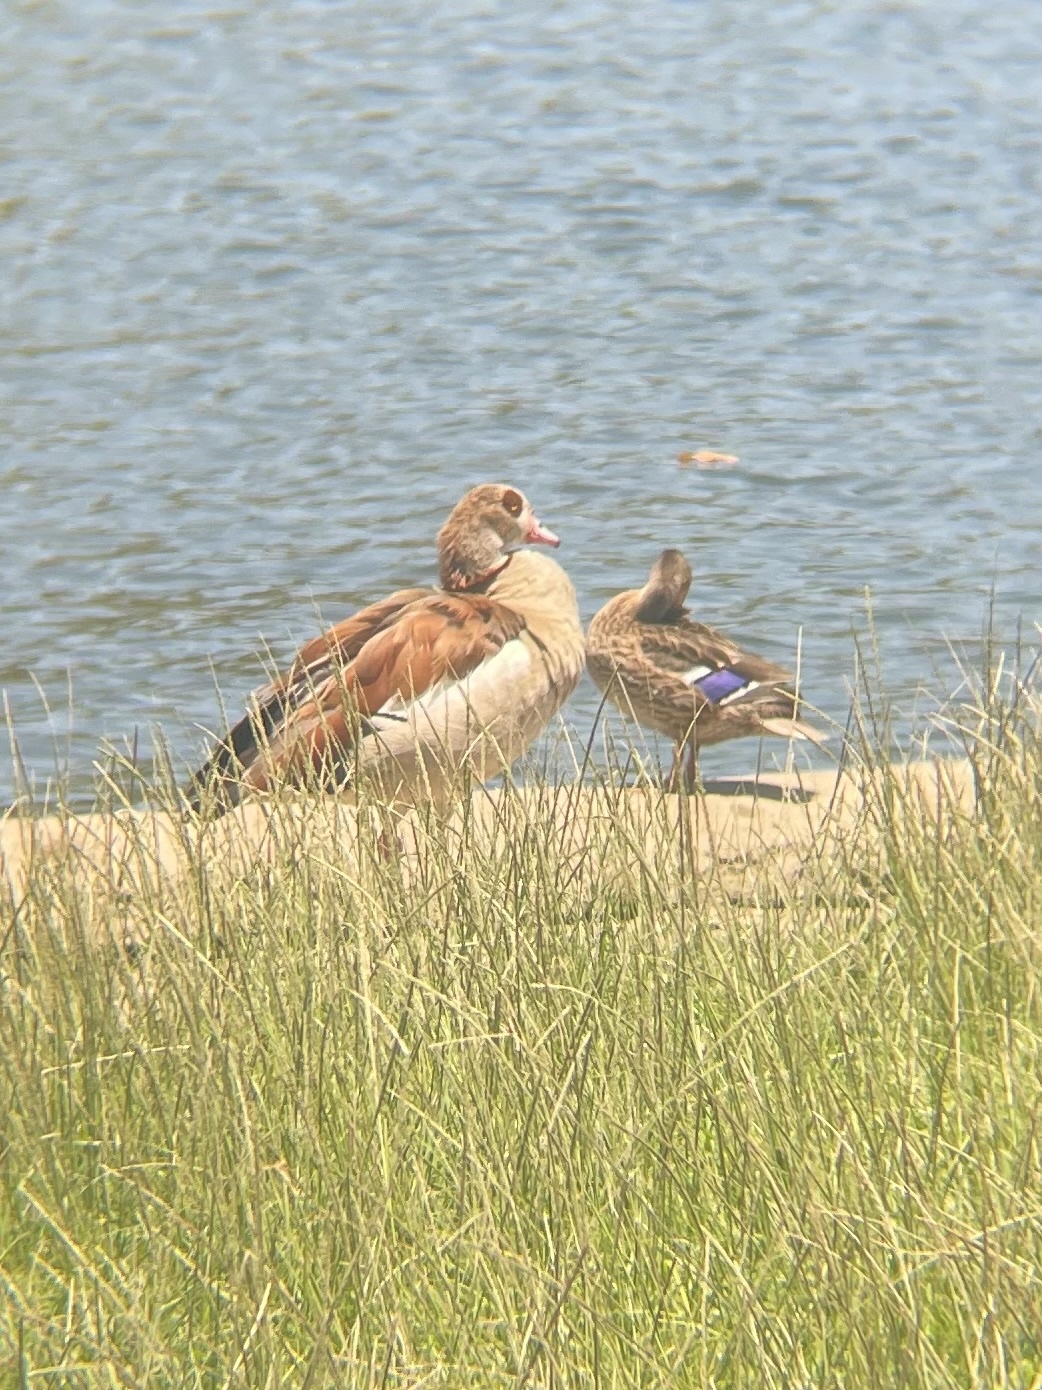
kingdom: Animalia
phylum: Chordata
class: Aves
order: Anseriformes
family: Anatidae
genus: Anas
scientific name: Anas platyrhynchos
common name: Mallard
